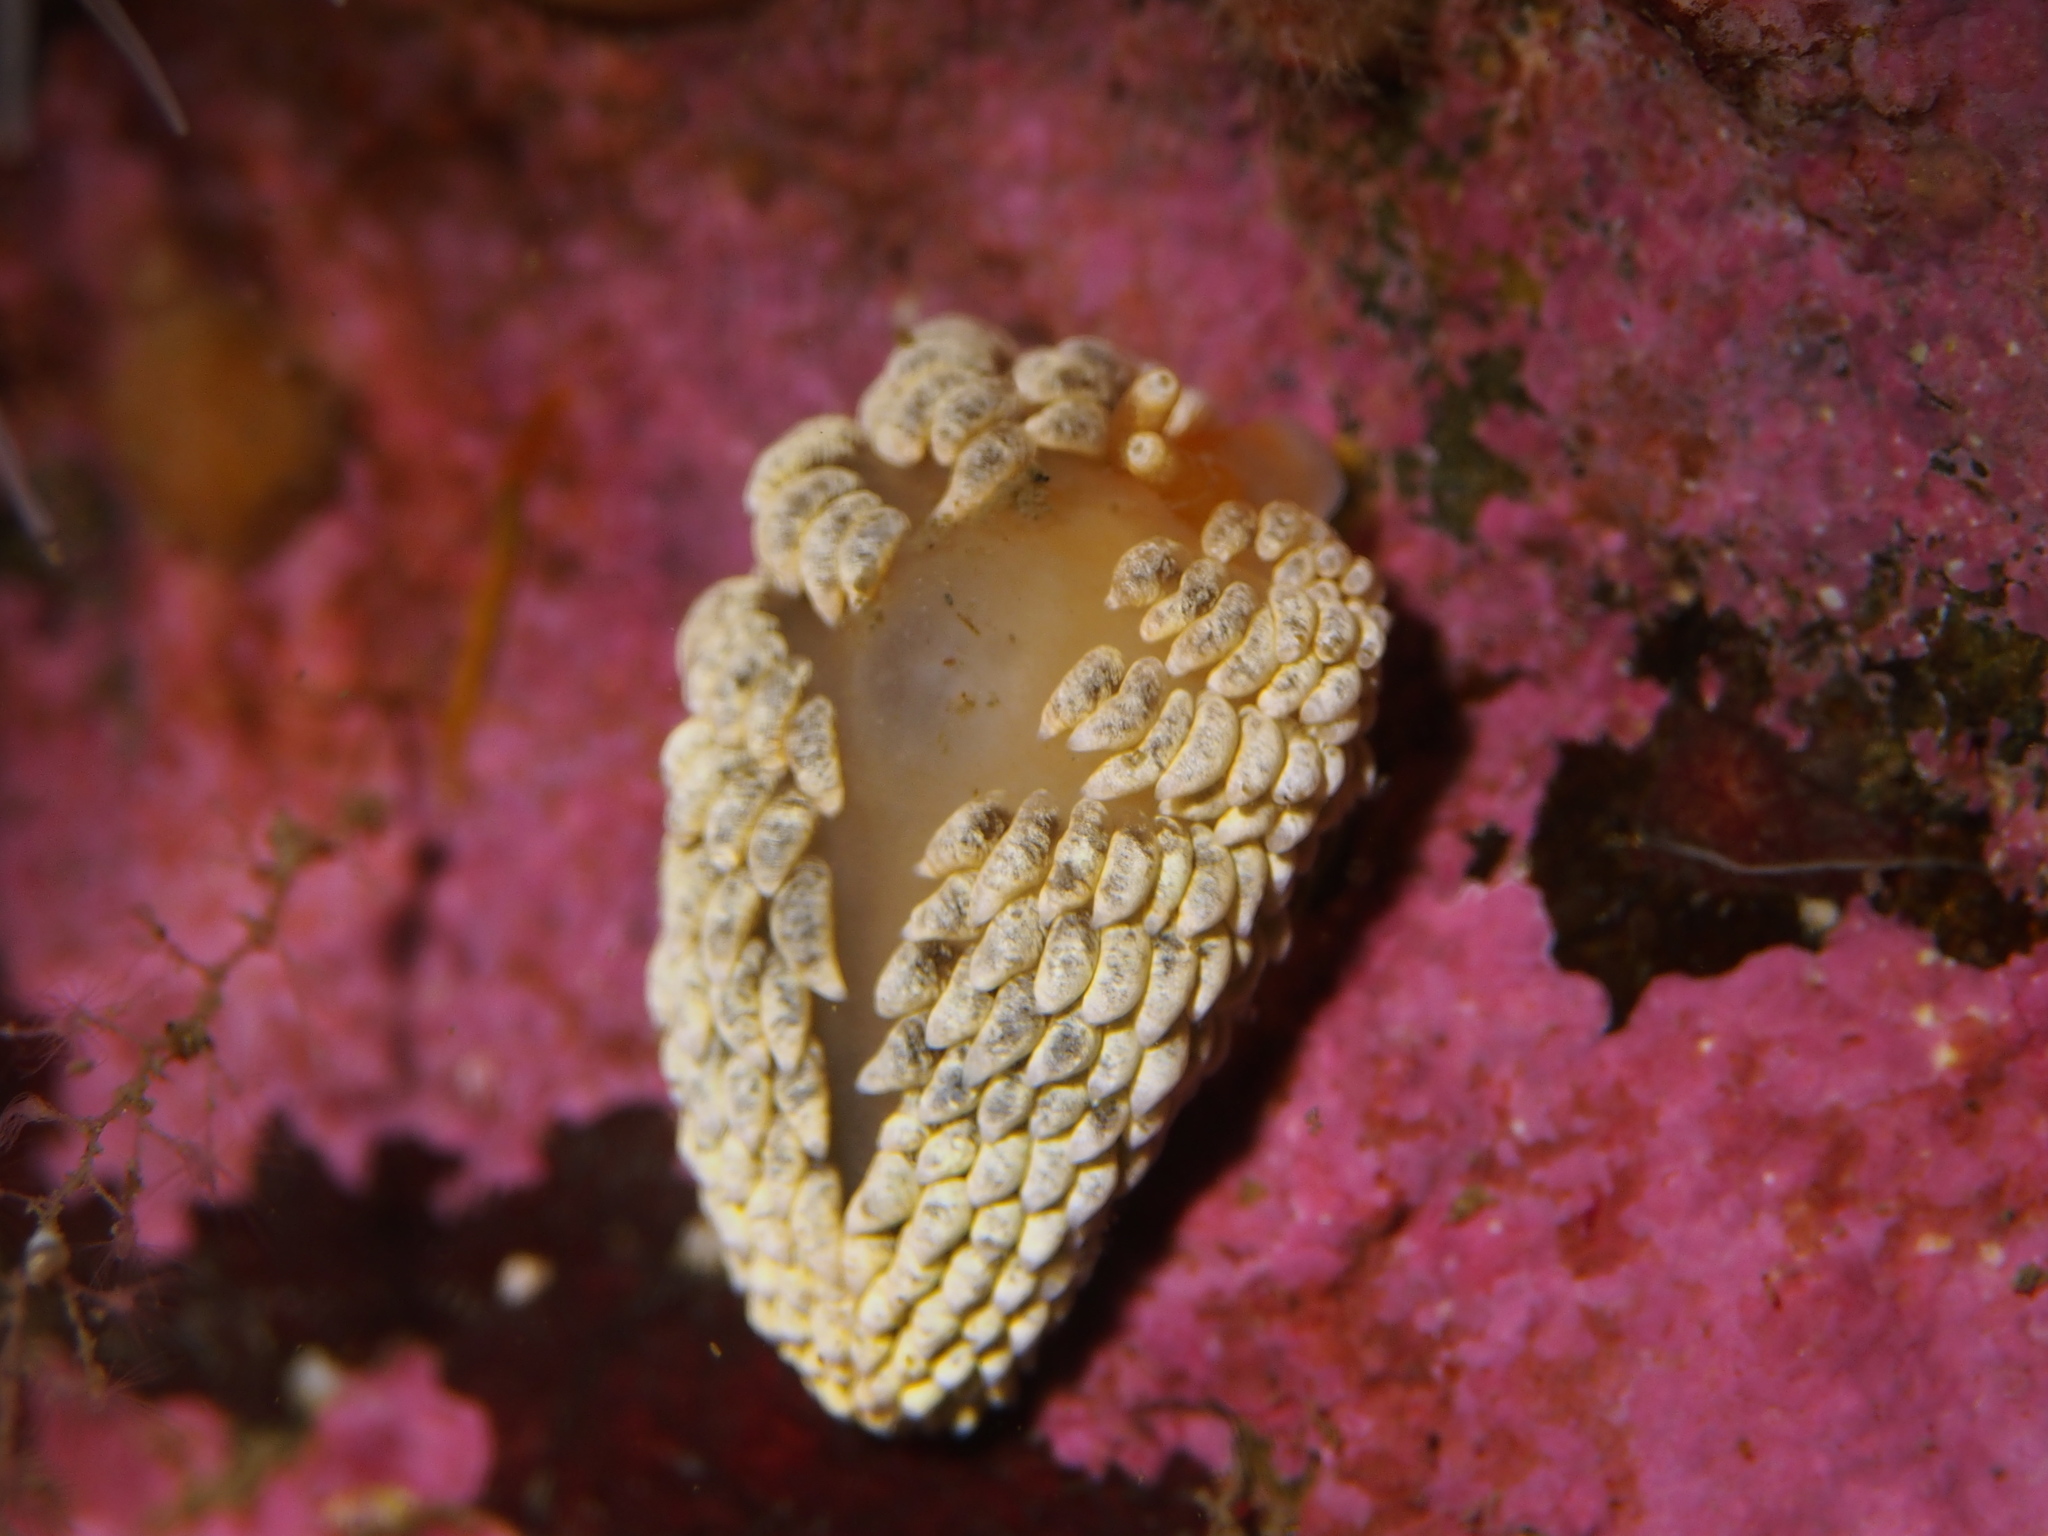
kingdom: Animalia
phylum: Mollusca
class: Gastropoda
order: Nudibranchia
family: Aeolidiidae
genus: Aeolidiella
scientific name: Aeolidiella glauca
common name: Orange-brown aeolid
